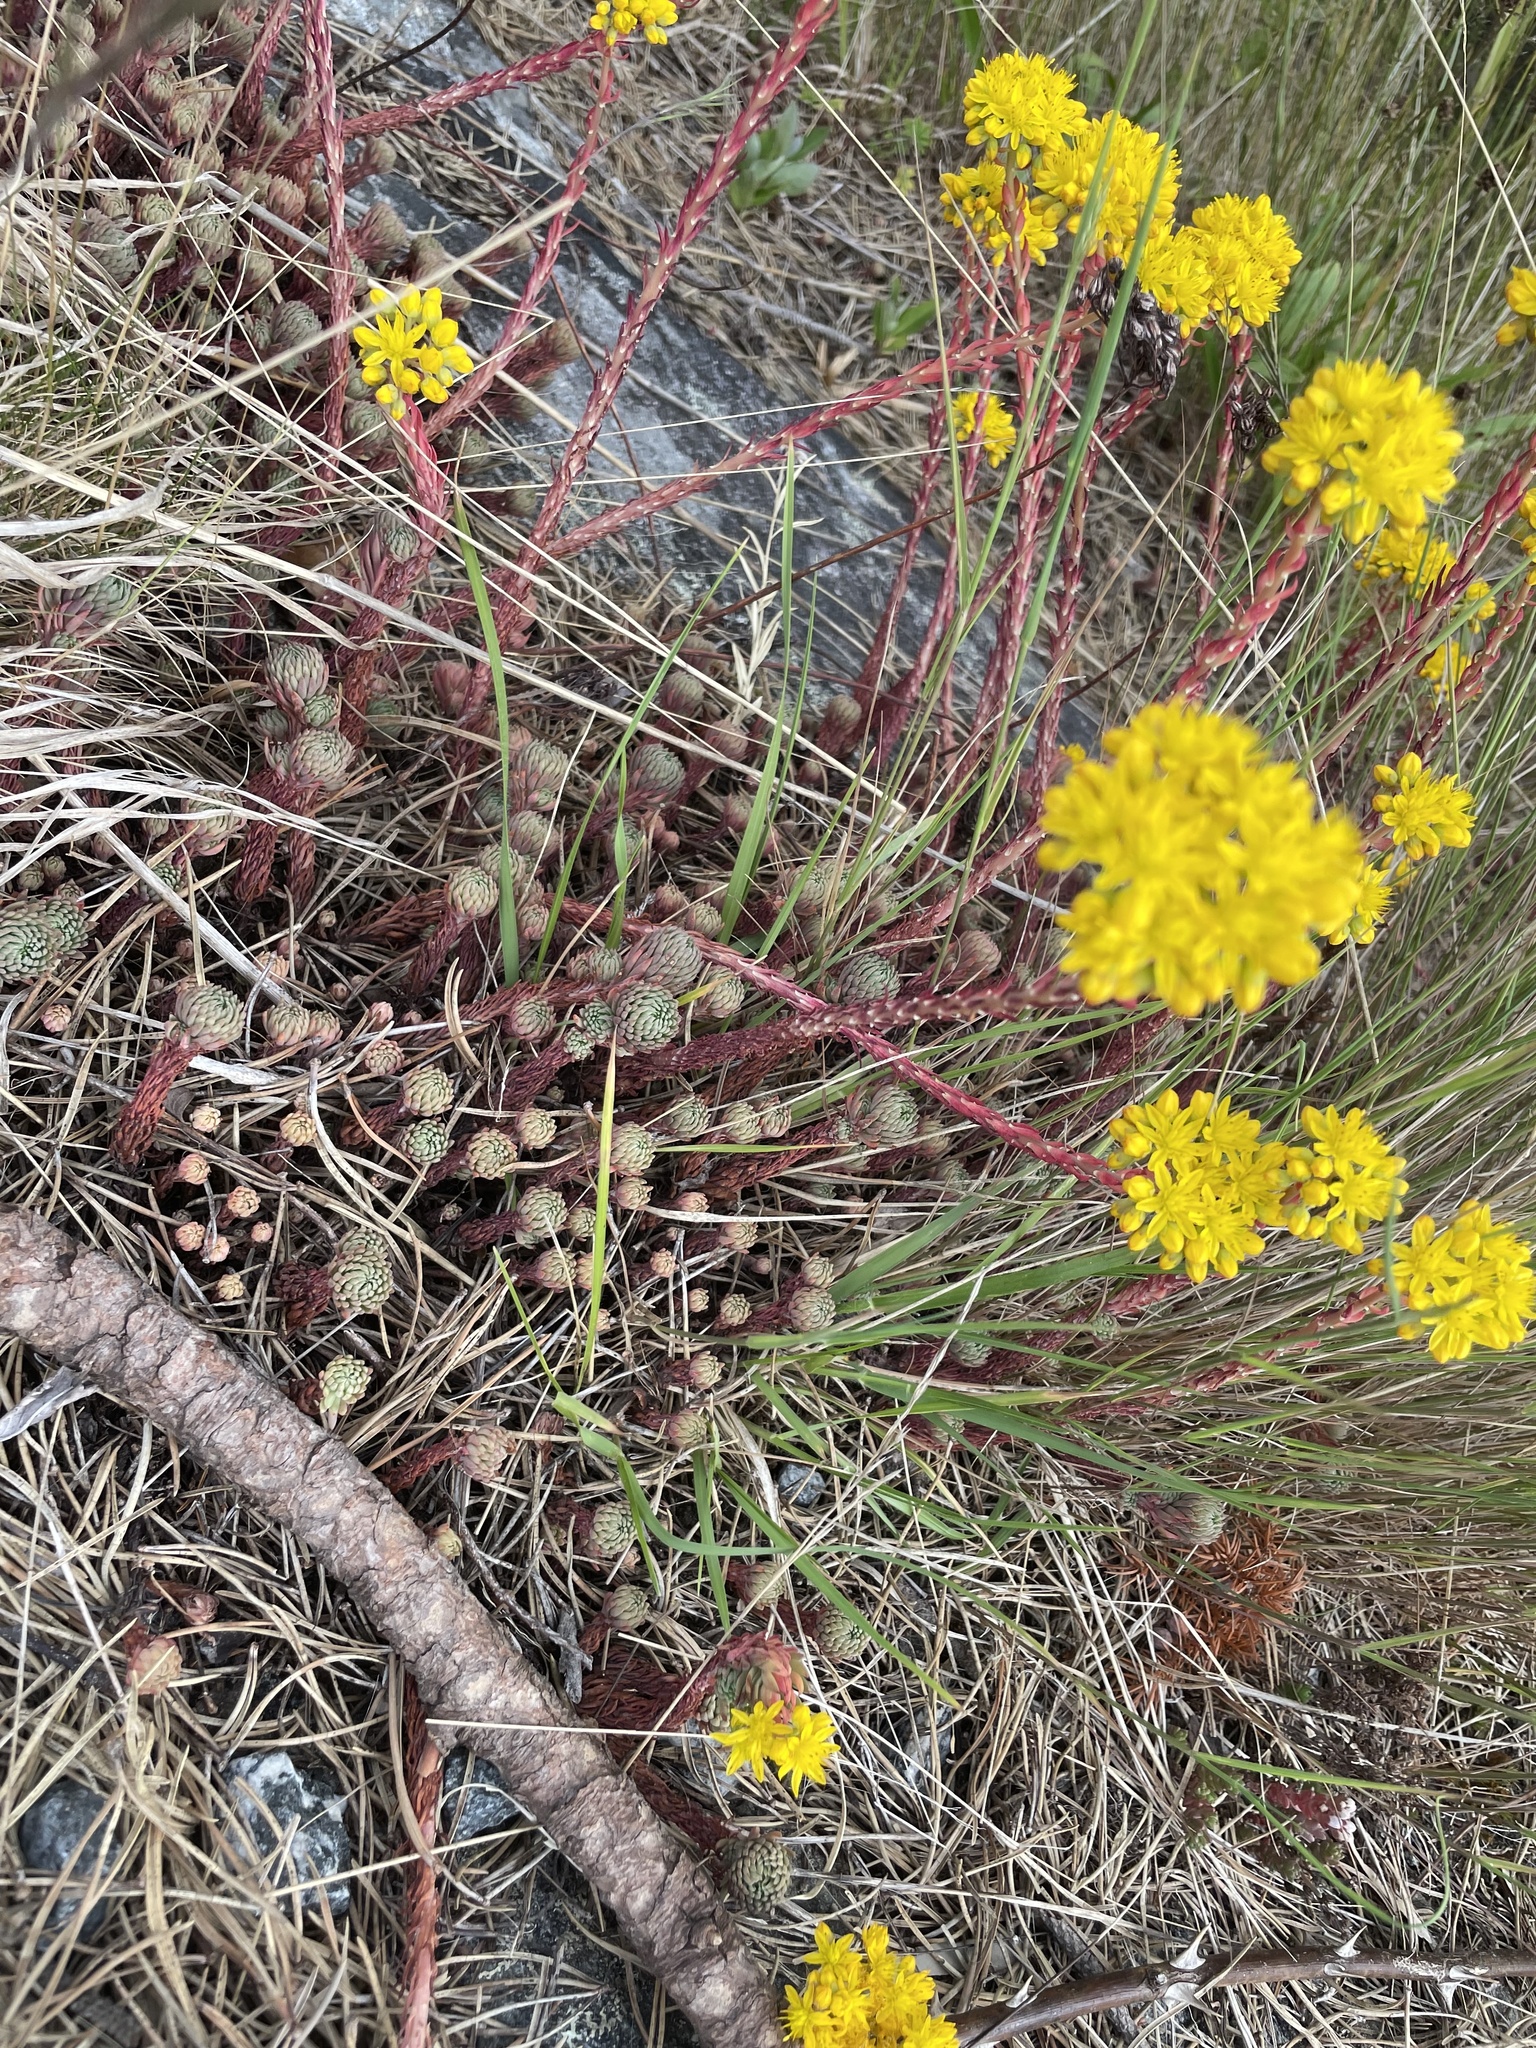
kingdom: Plantae
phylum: Tracheophyta
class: Magnoliopsida
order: Saxifragales
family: Crassulaceae
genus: Petrosedum
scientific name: Petrosedum forsterianum
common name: Forster's stonecrop
